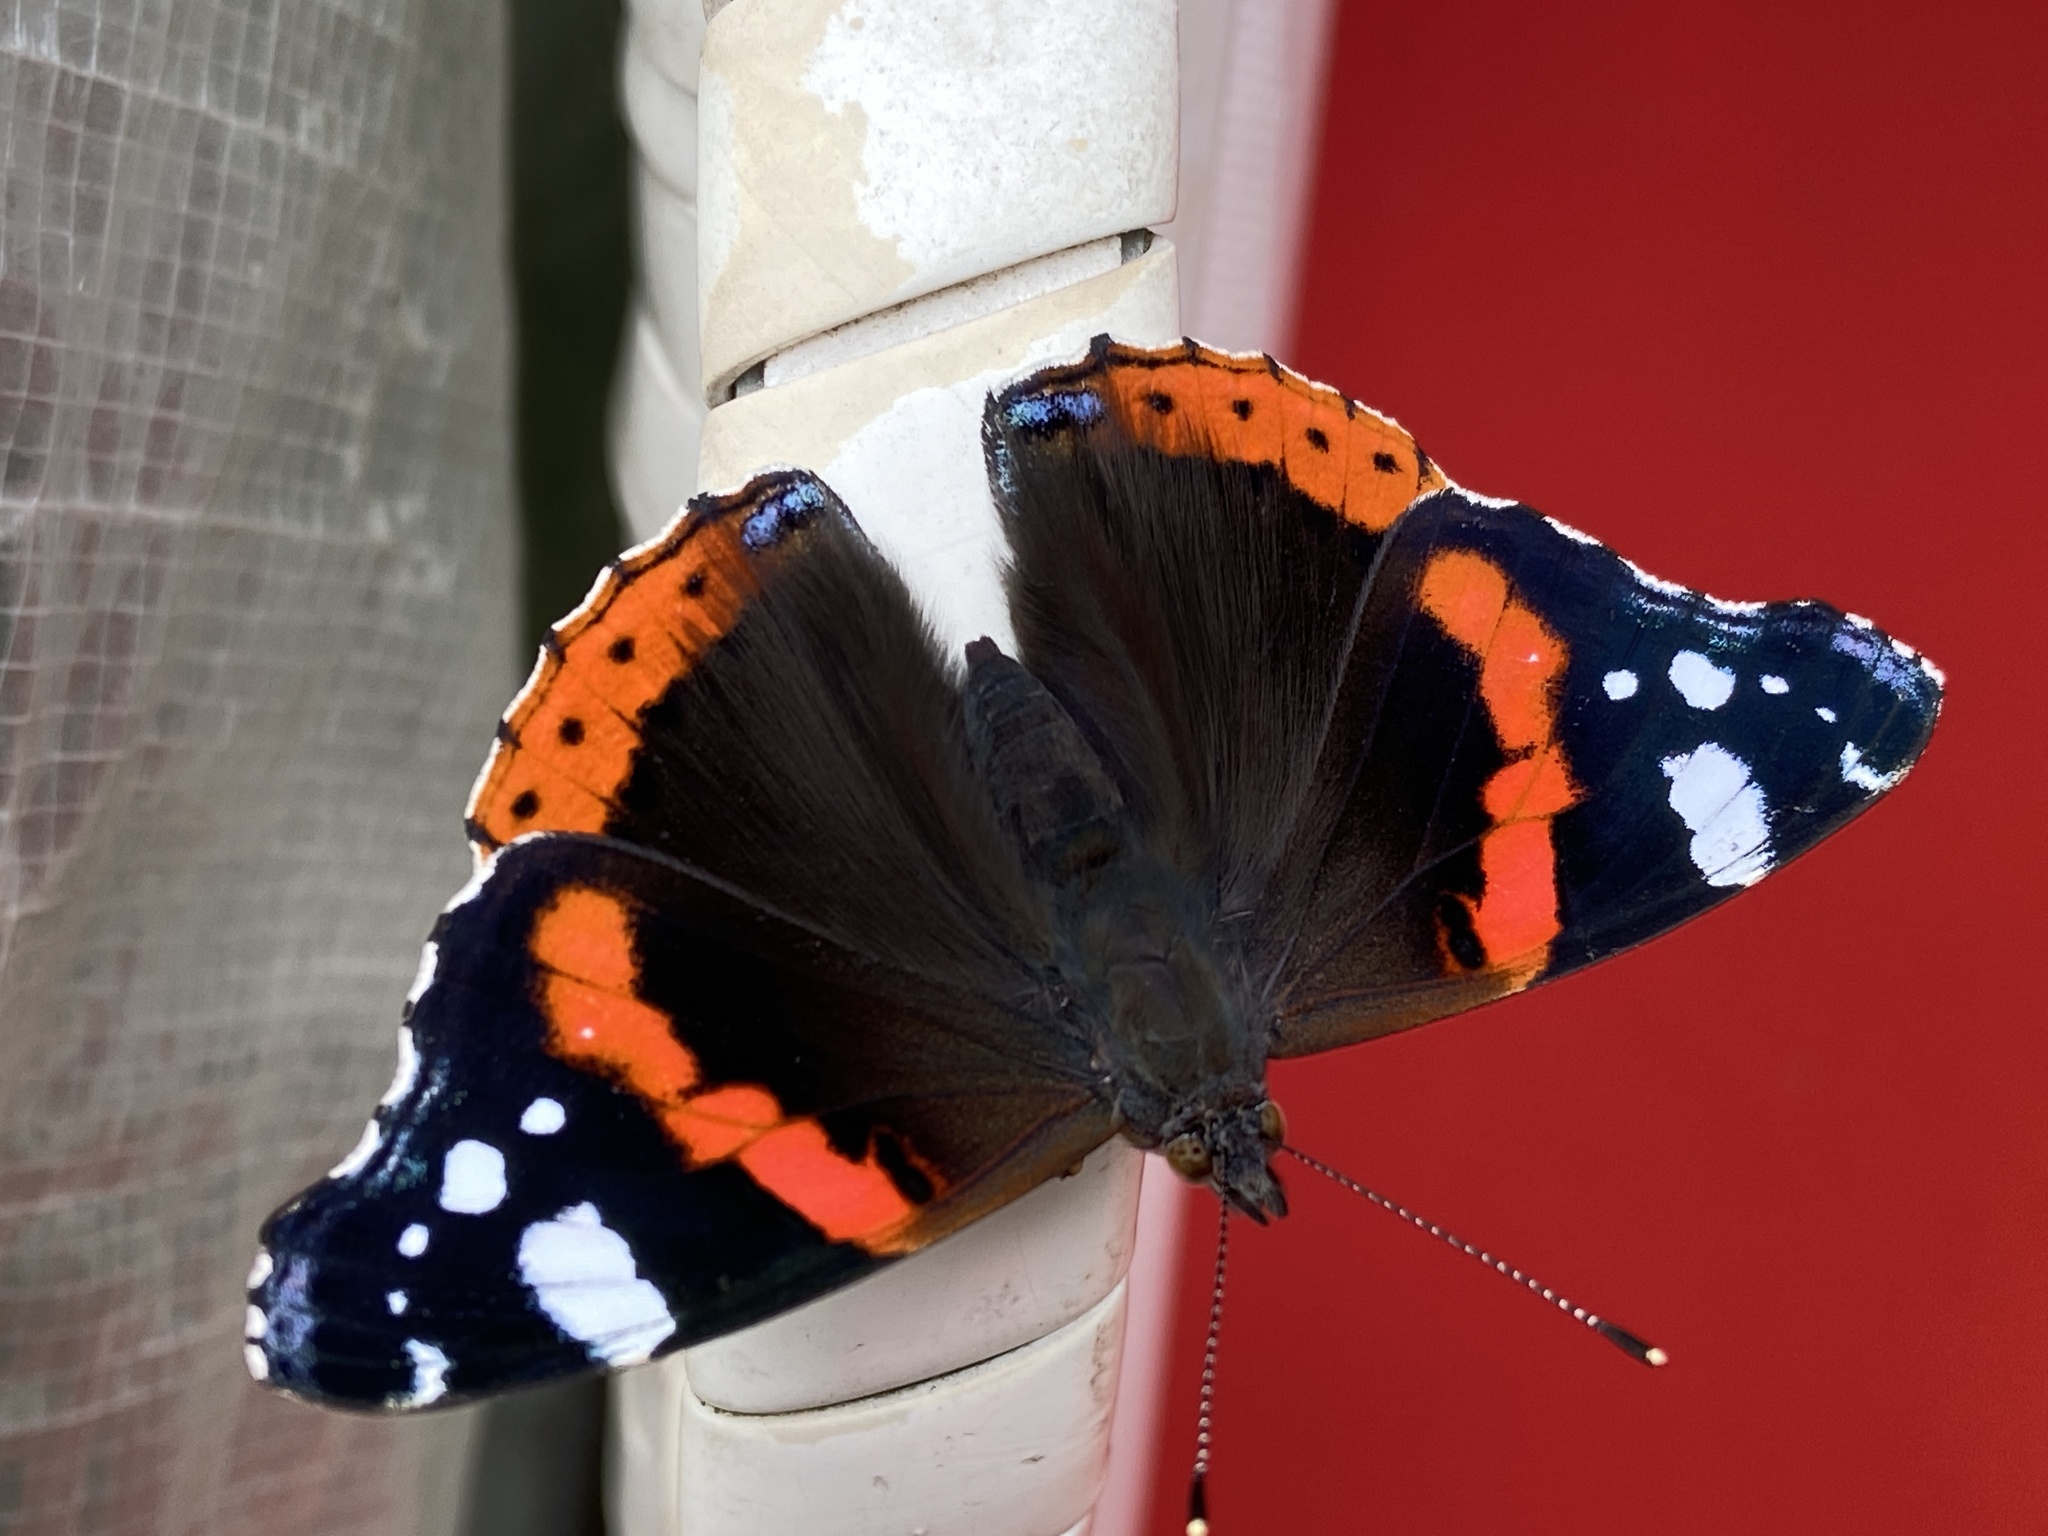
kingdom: Animalia
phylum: Arthropoda
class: Insecta
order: Lepidoptera
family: Nymphalidae
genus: Vanessa
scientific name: Vanessa atalanta
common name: Red admiral
